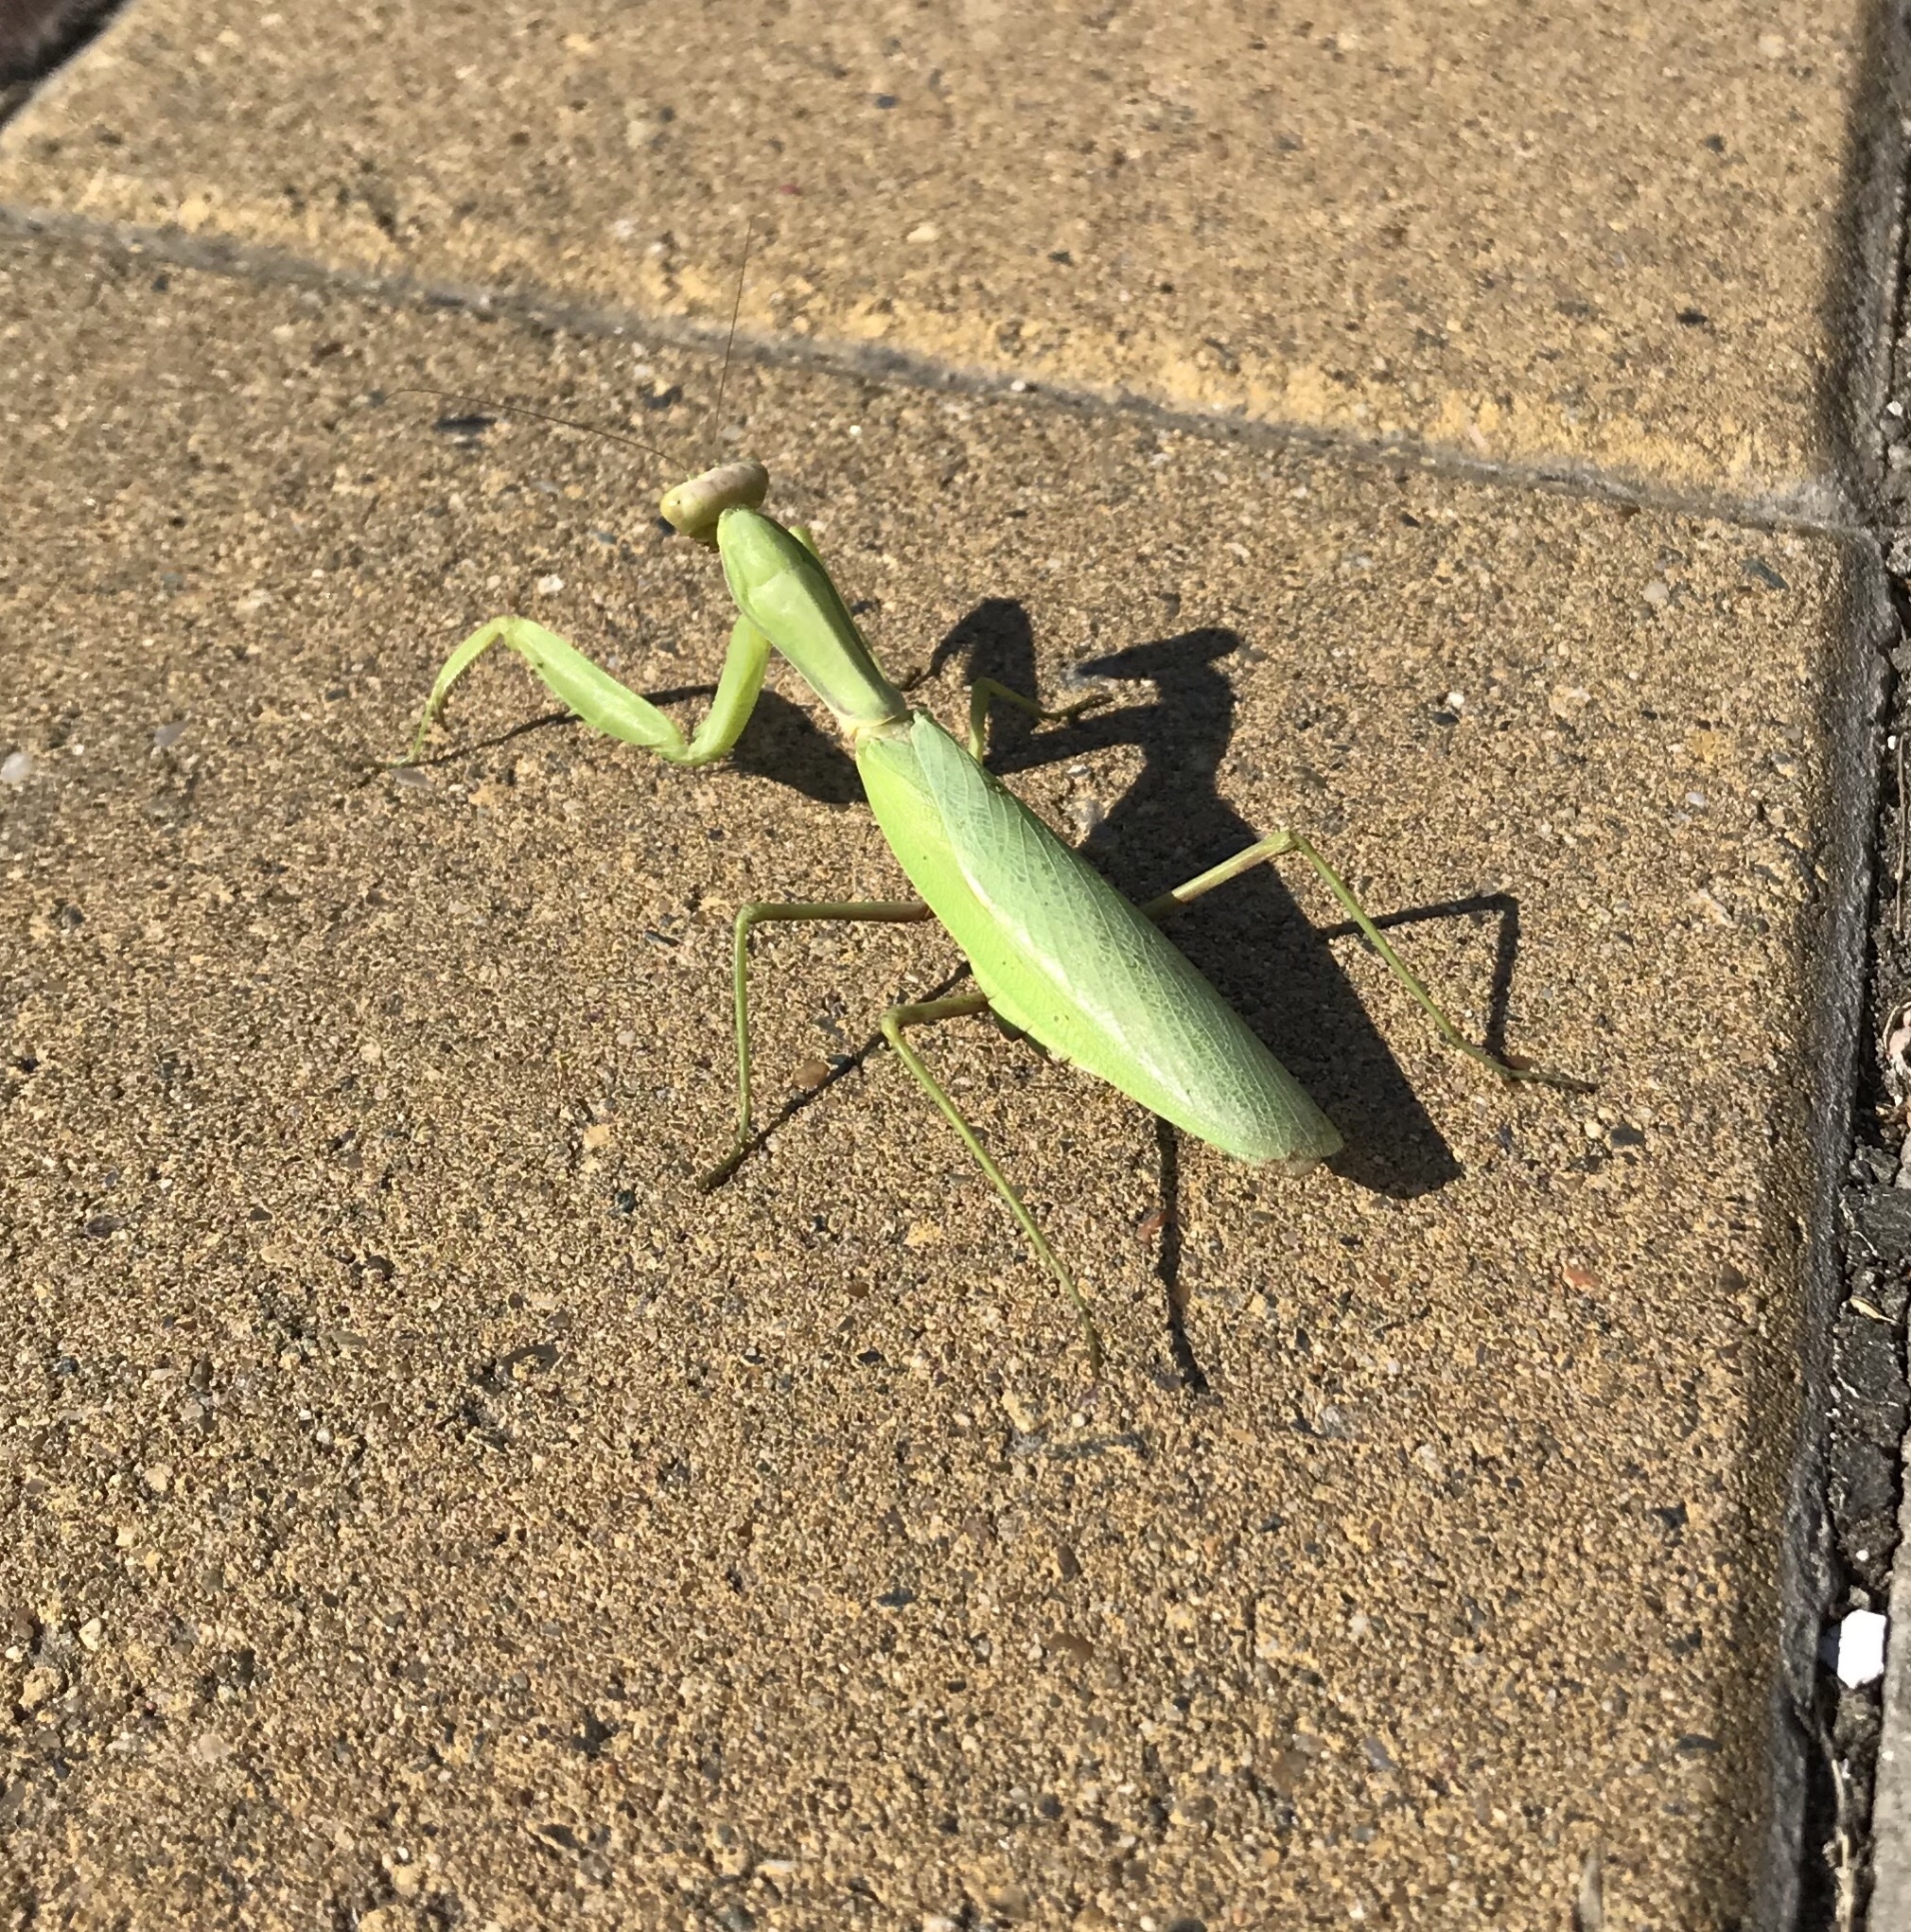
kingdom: Animalia
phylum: Arthropoda
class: Insecta
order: Mantodea
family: Mantidae
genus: Hierodula
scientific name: Hierodula transcaucasica
